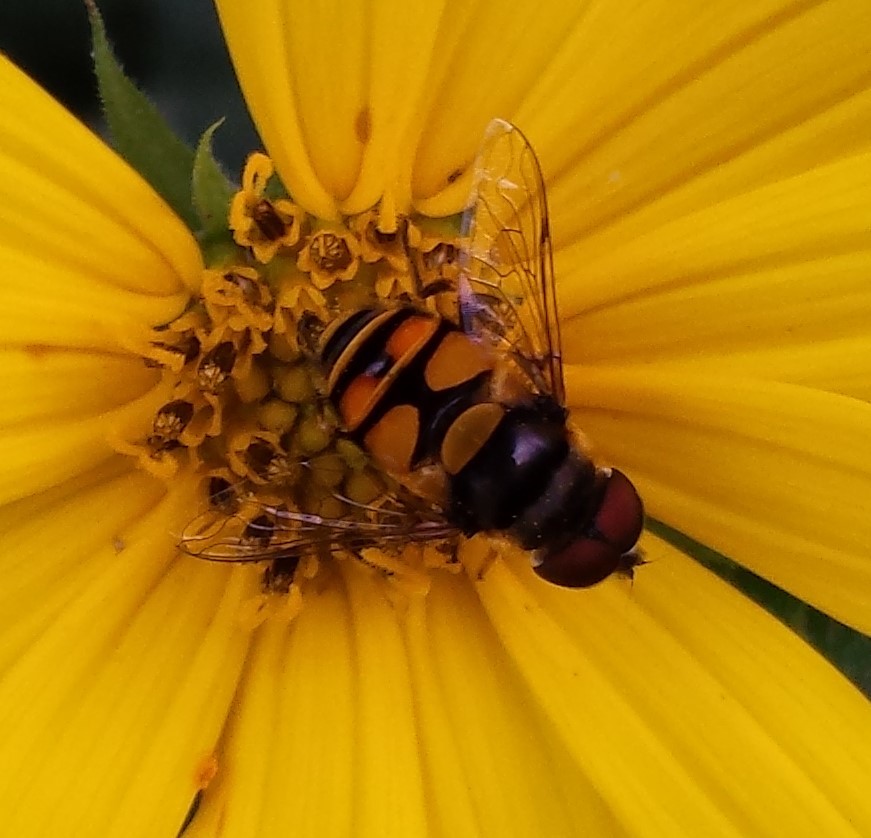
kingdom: Animalia
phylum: Arthropoda
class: Insecta
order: Diptera
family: Syrphidae
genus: Eristalis
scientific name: Eristalis transversa
